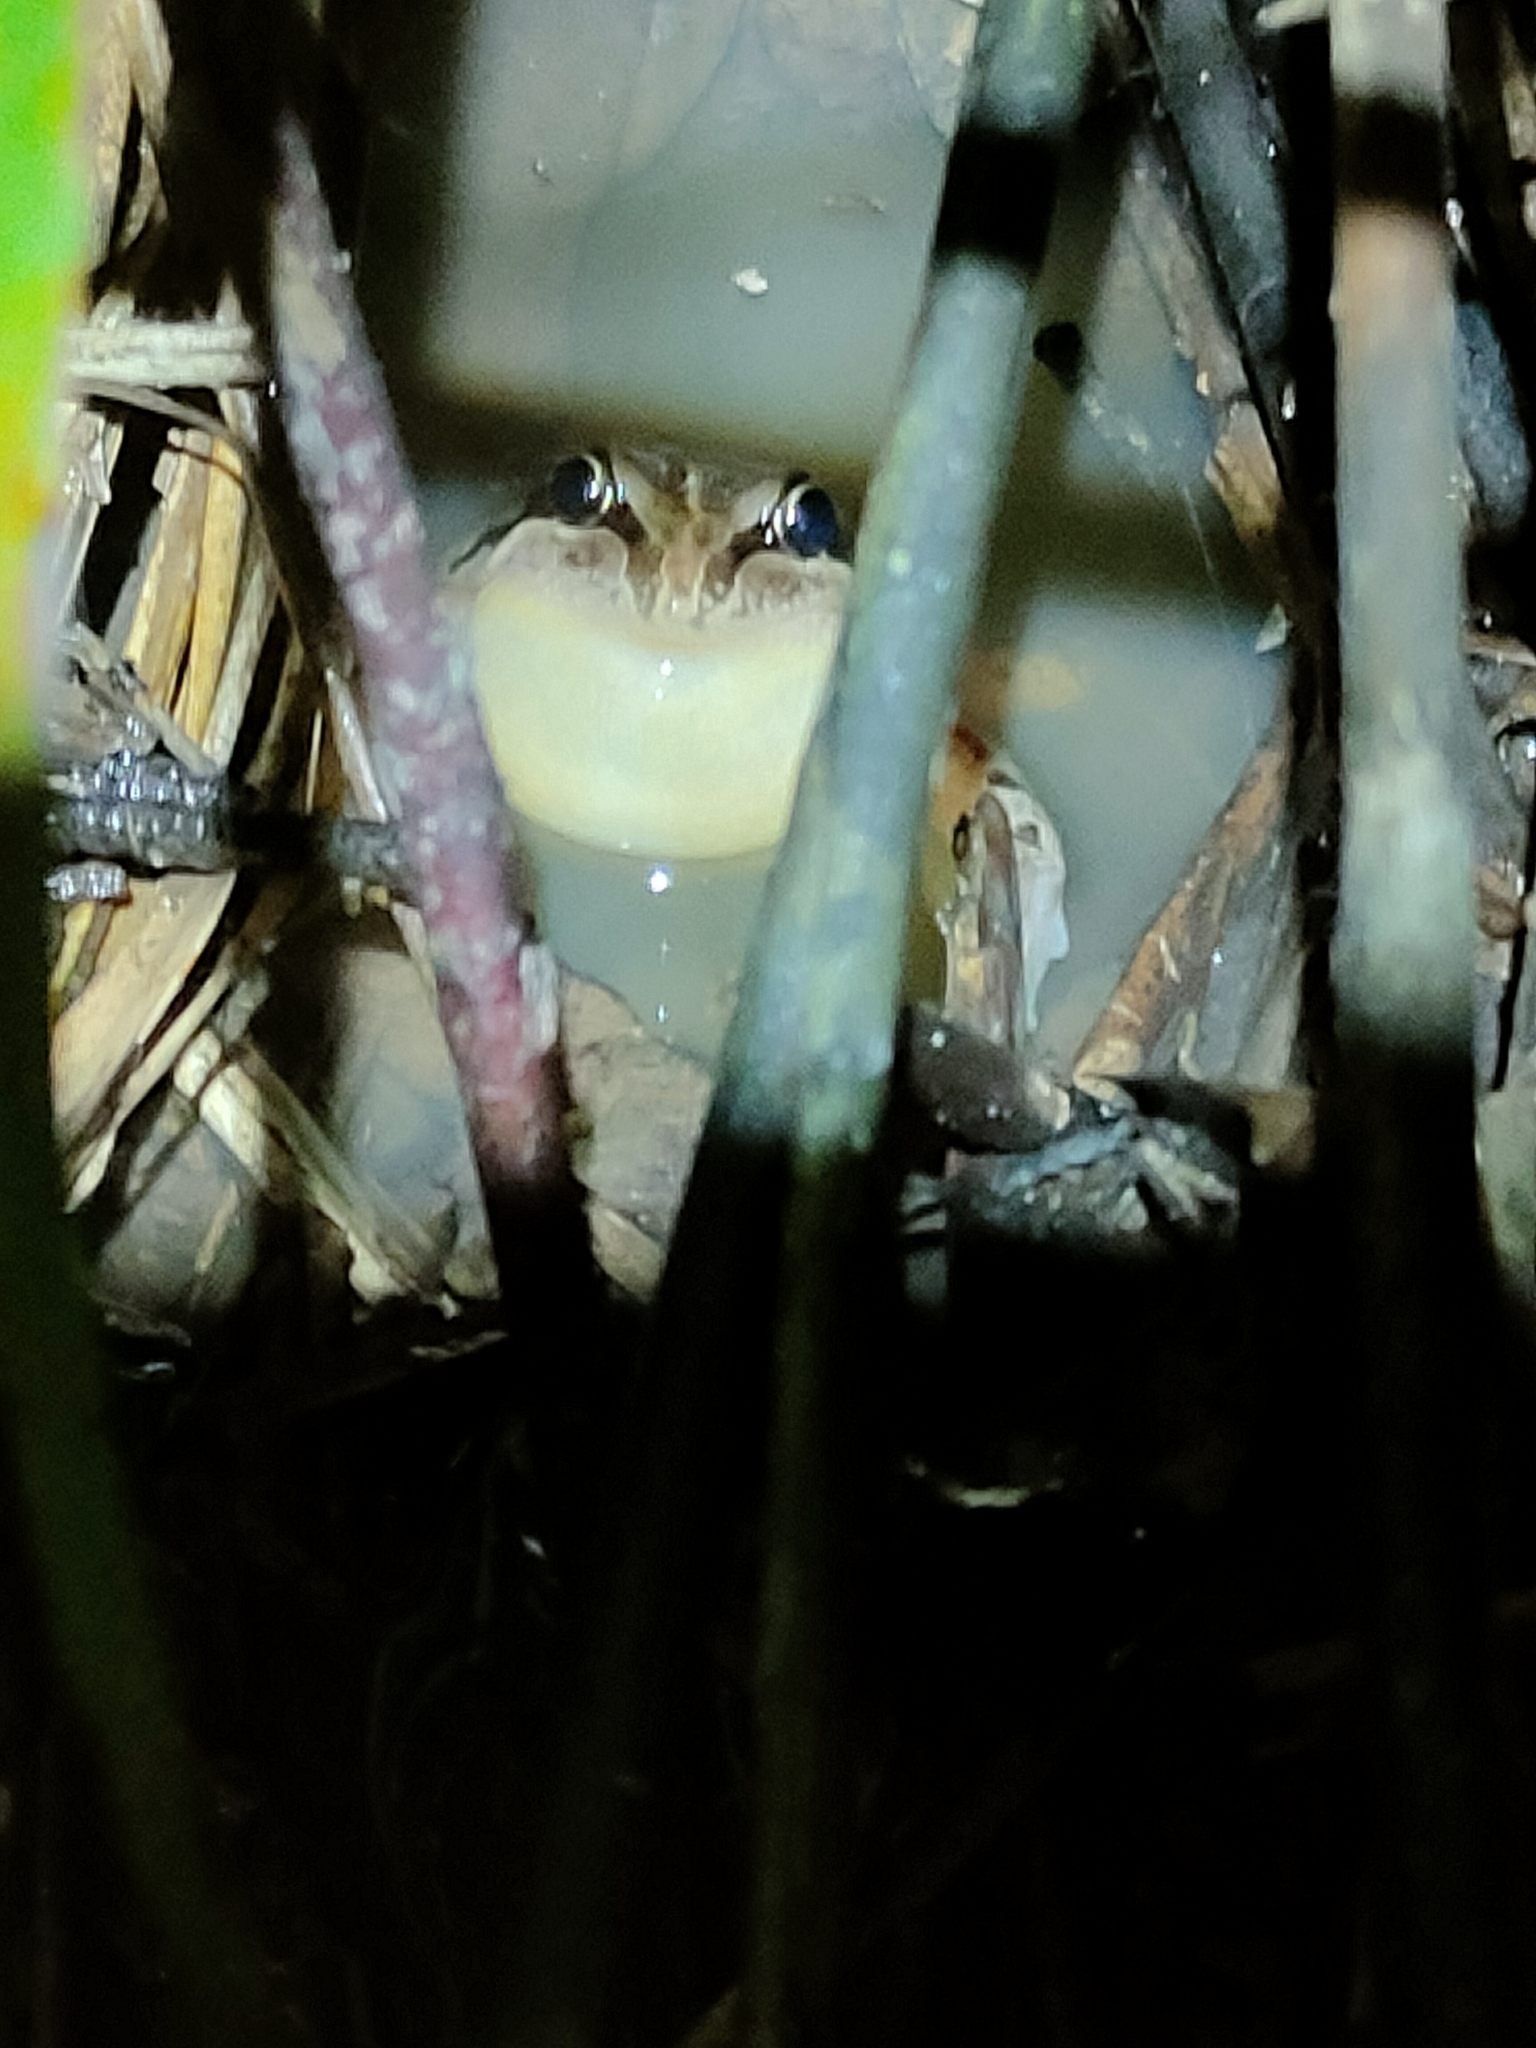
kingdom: Animalia
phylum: Chordata
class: Amphibia
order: Anura
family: Limnodynastidae
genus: Limnodynastes
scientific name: Limnodynastes peronii
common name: Brown frog
